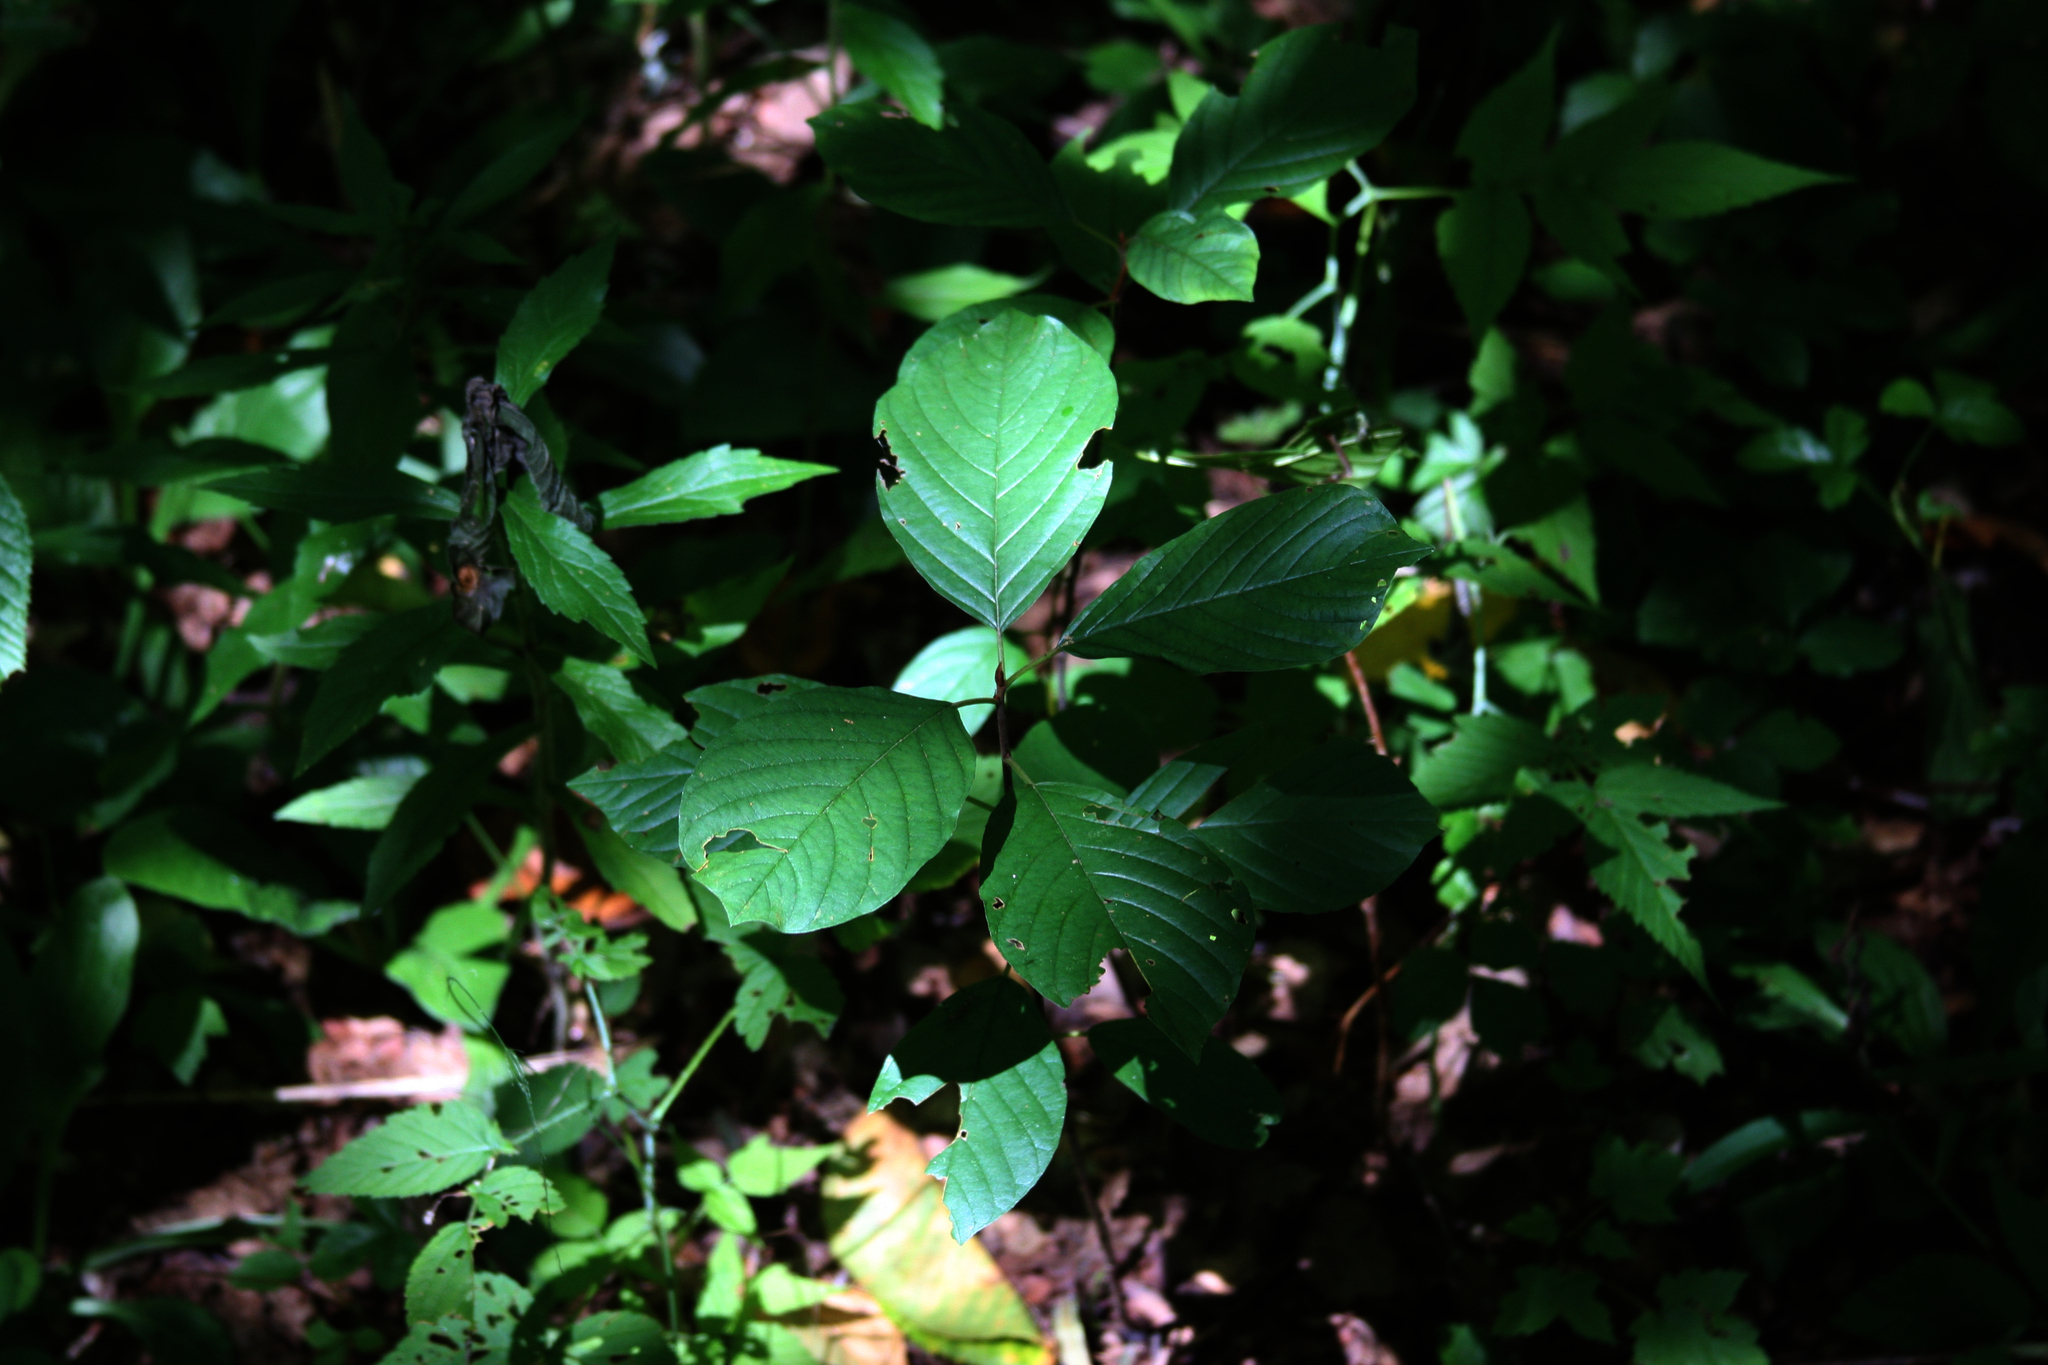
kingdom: Plantae
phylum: Tracheophyta
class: Magnoliopsida
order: Rosales
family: Rhamnaceae
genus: Frangula
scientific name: Frangula alnus
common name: Alder buckthorn
